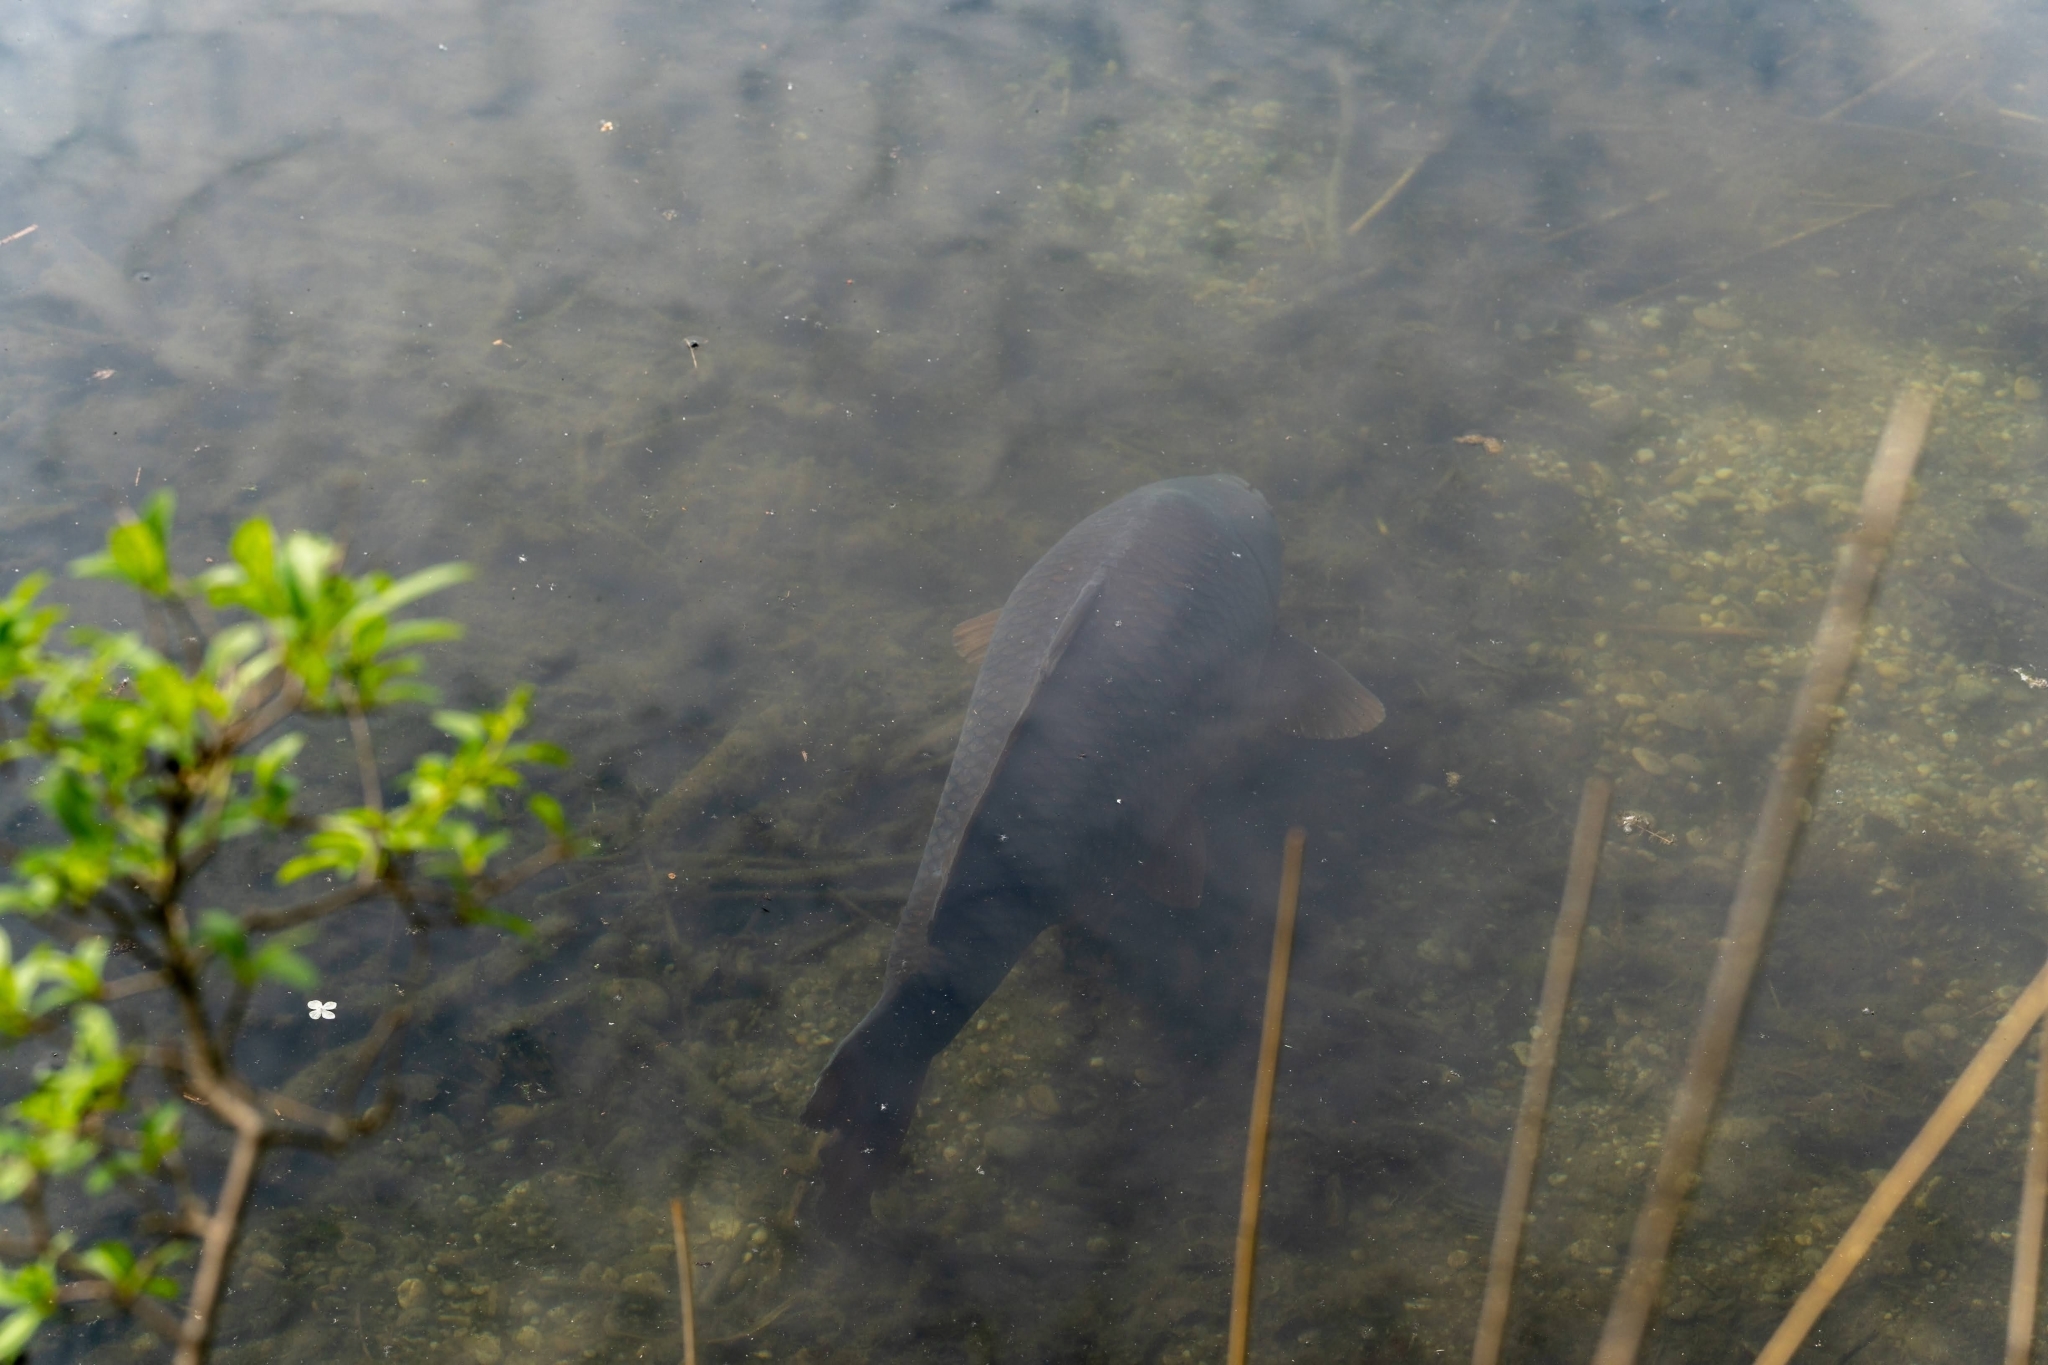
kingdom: Animalia
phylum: Chordata
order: Cypriniformes
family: Cyprinidae
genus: Cyprinus
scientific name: Cyprinus carpio
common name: Common carp
